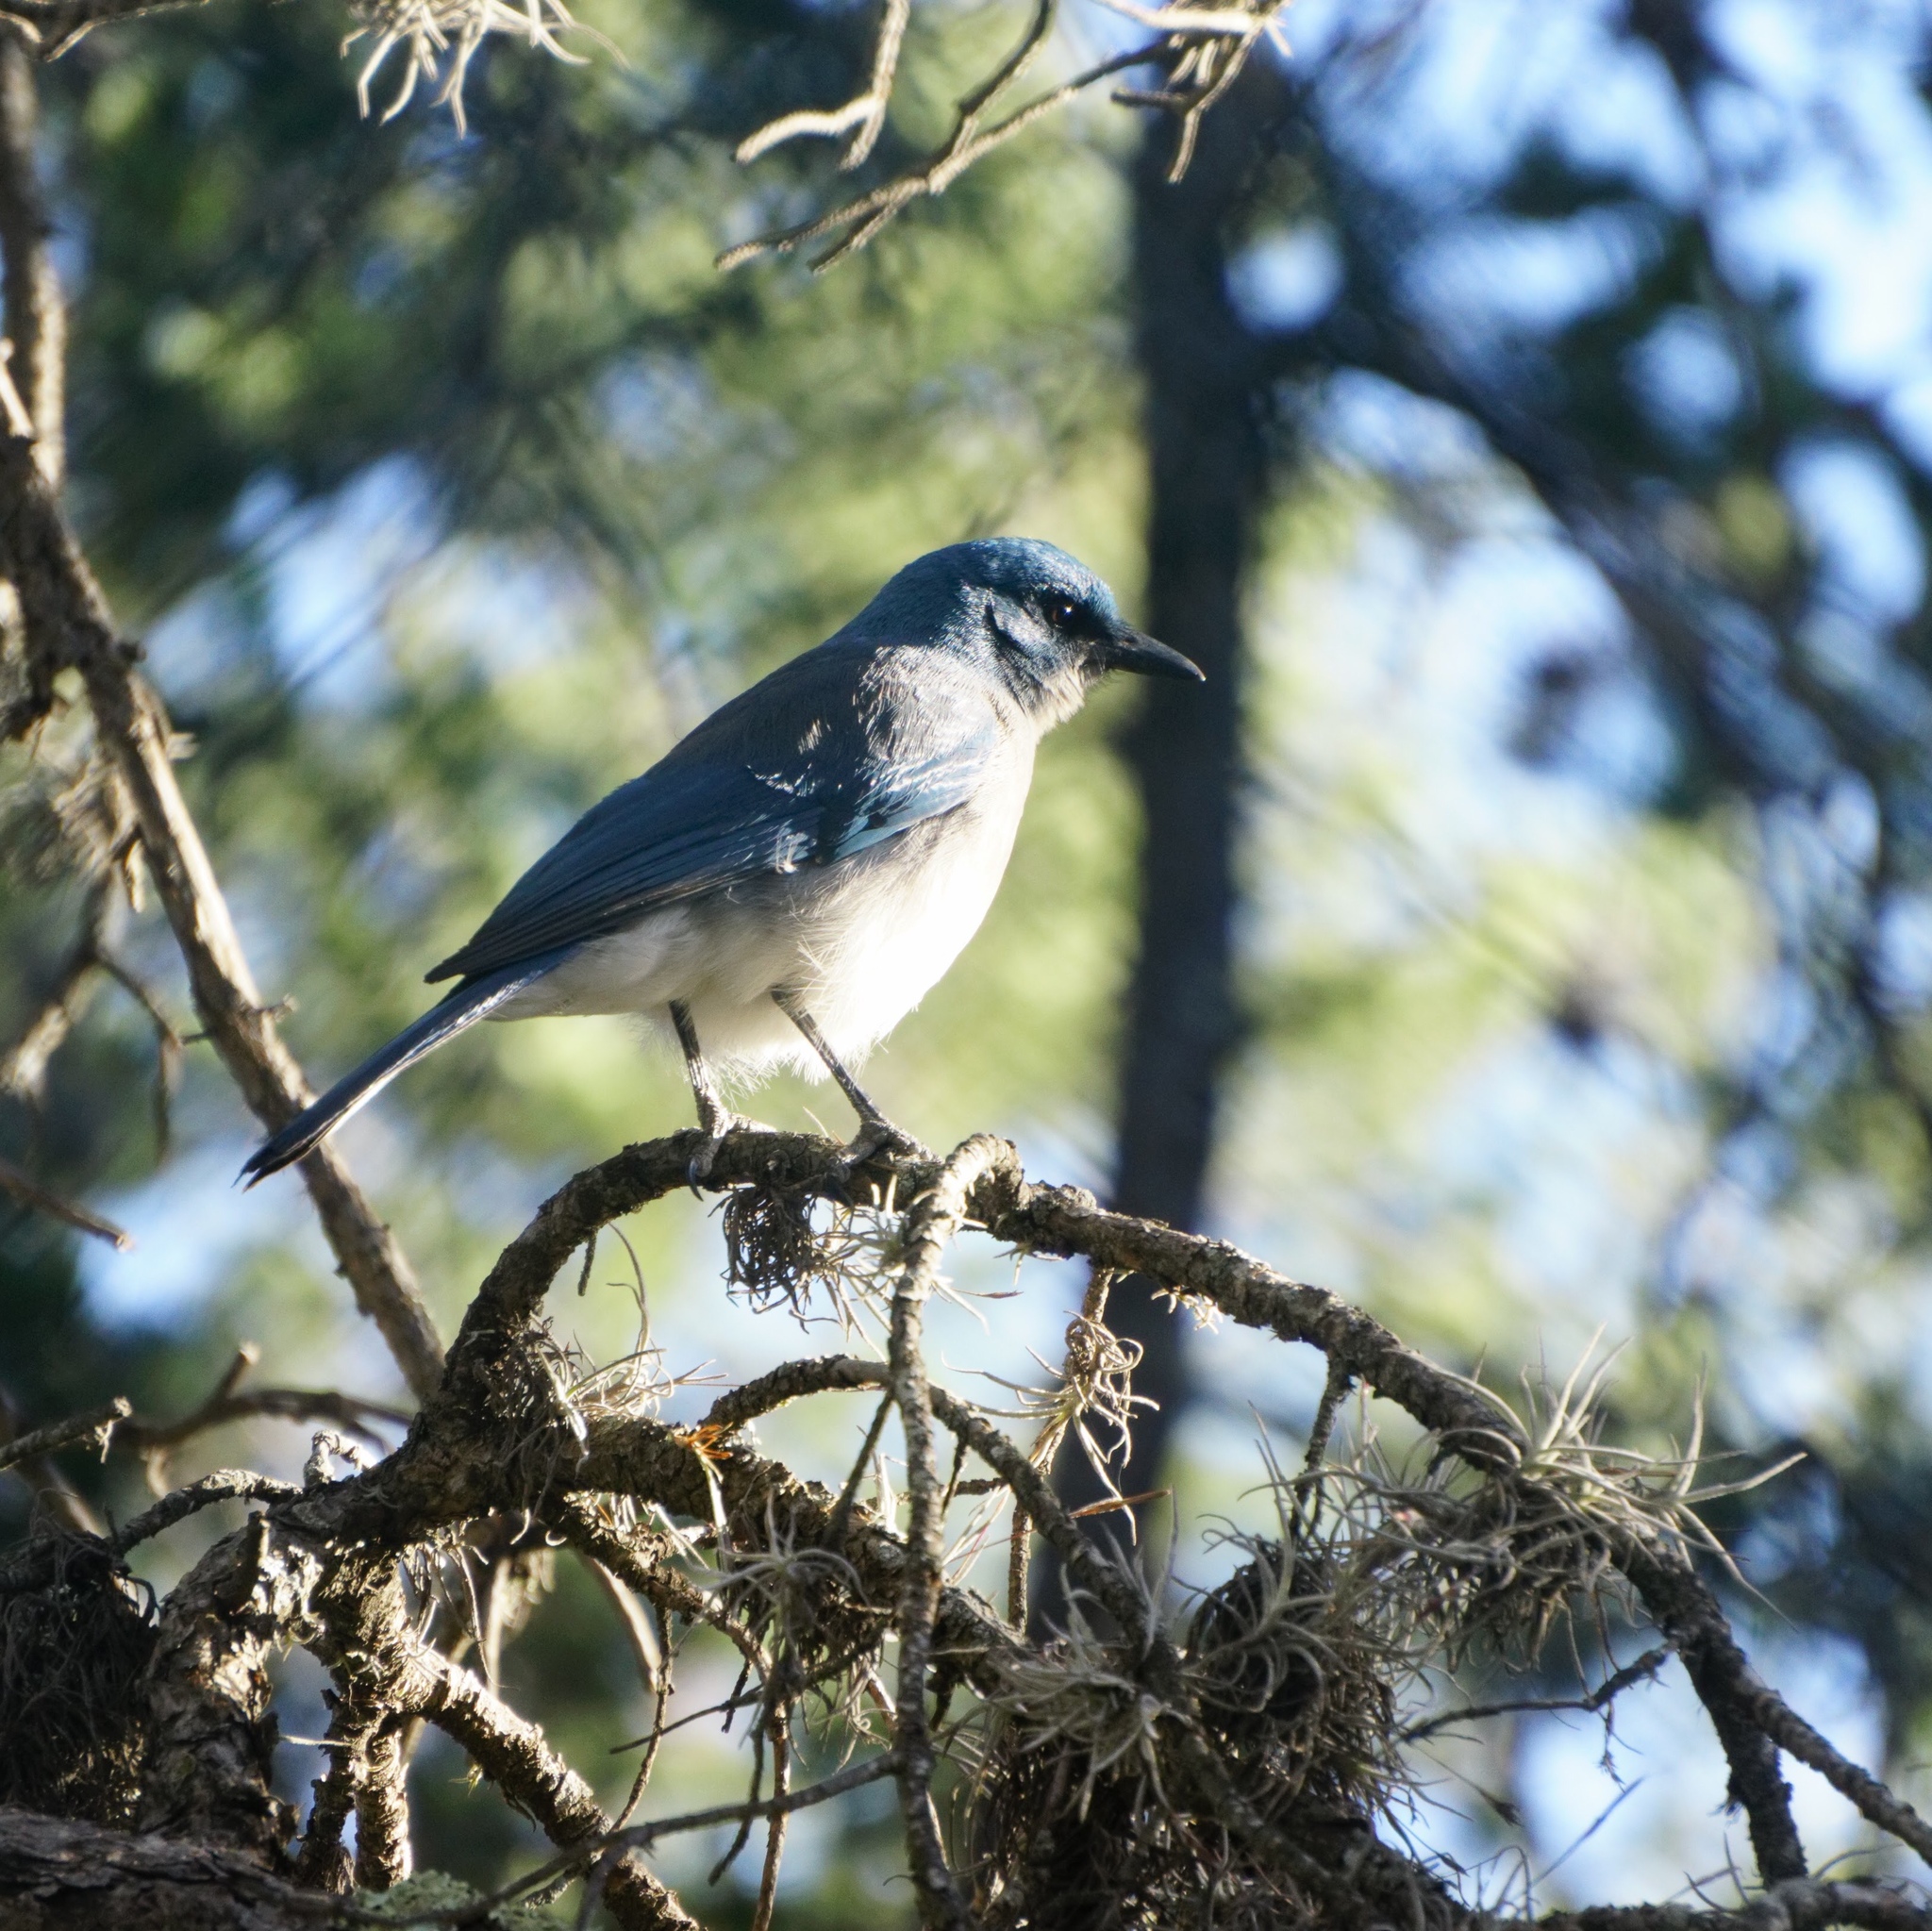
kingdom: Animalia
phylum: Chordata
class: Aves
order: Passeriformes
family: Corvidae
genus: Aphelocoma
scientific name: Aphelocoma wollweberi
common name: Mexican jay
